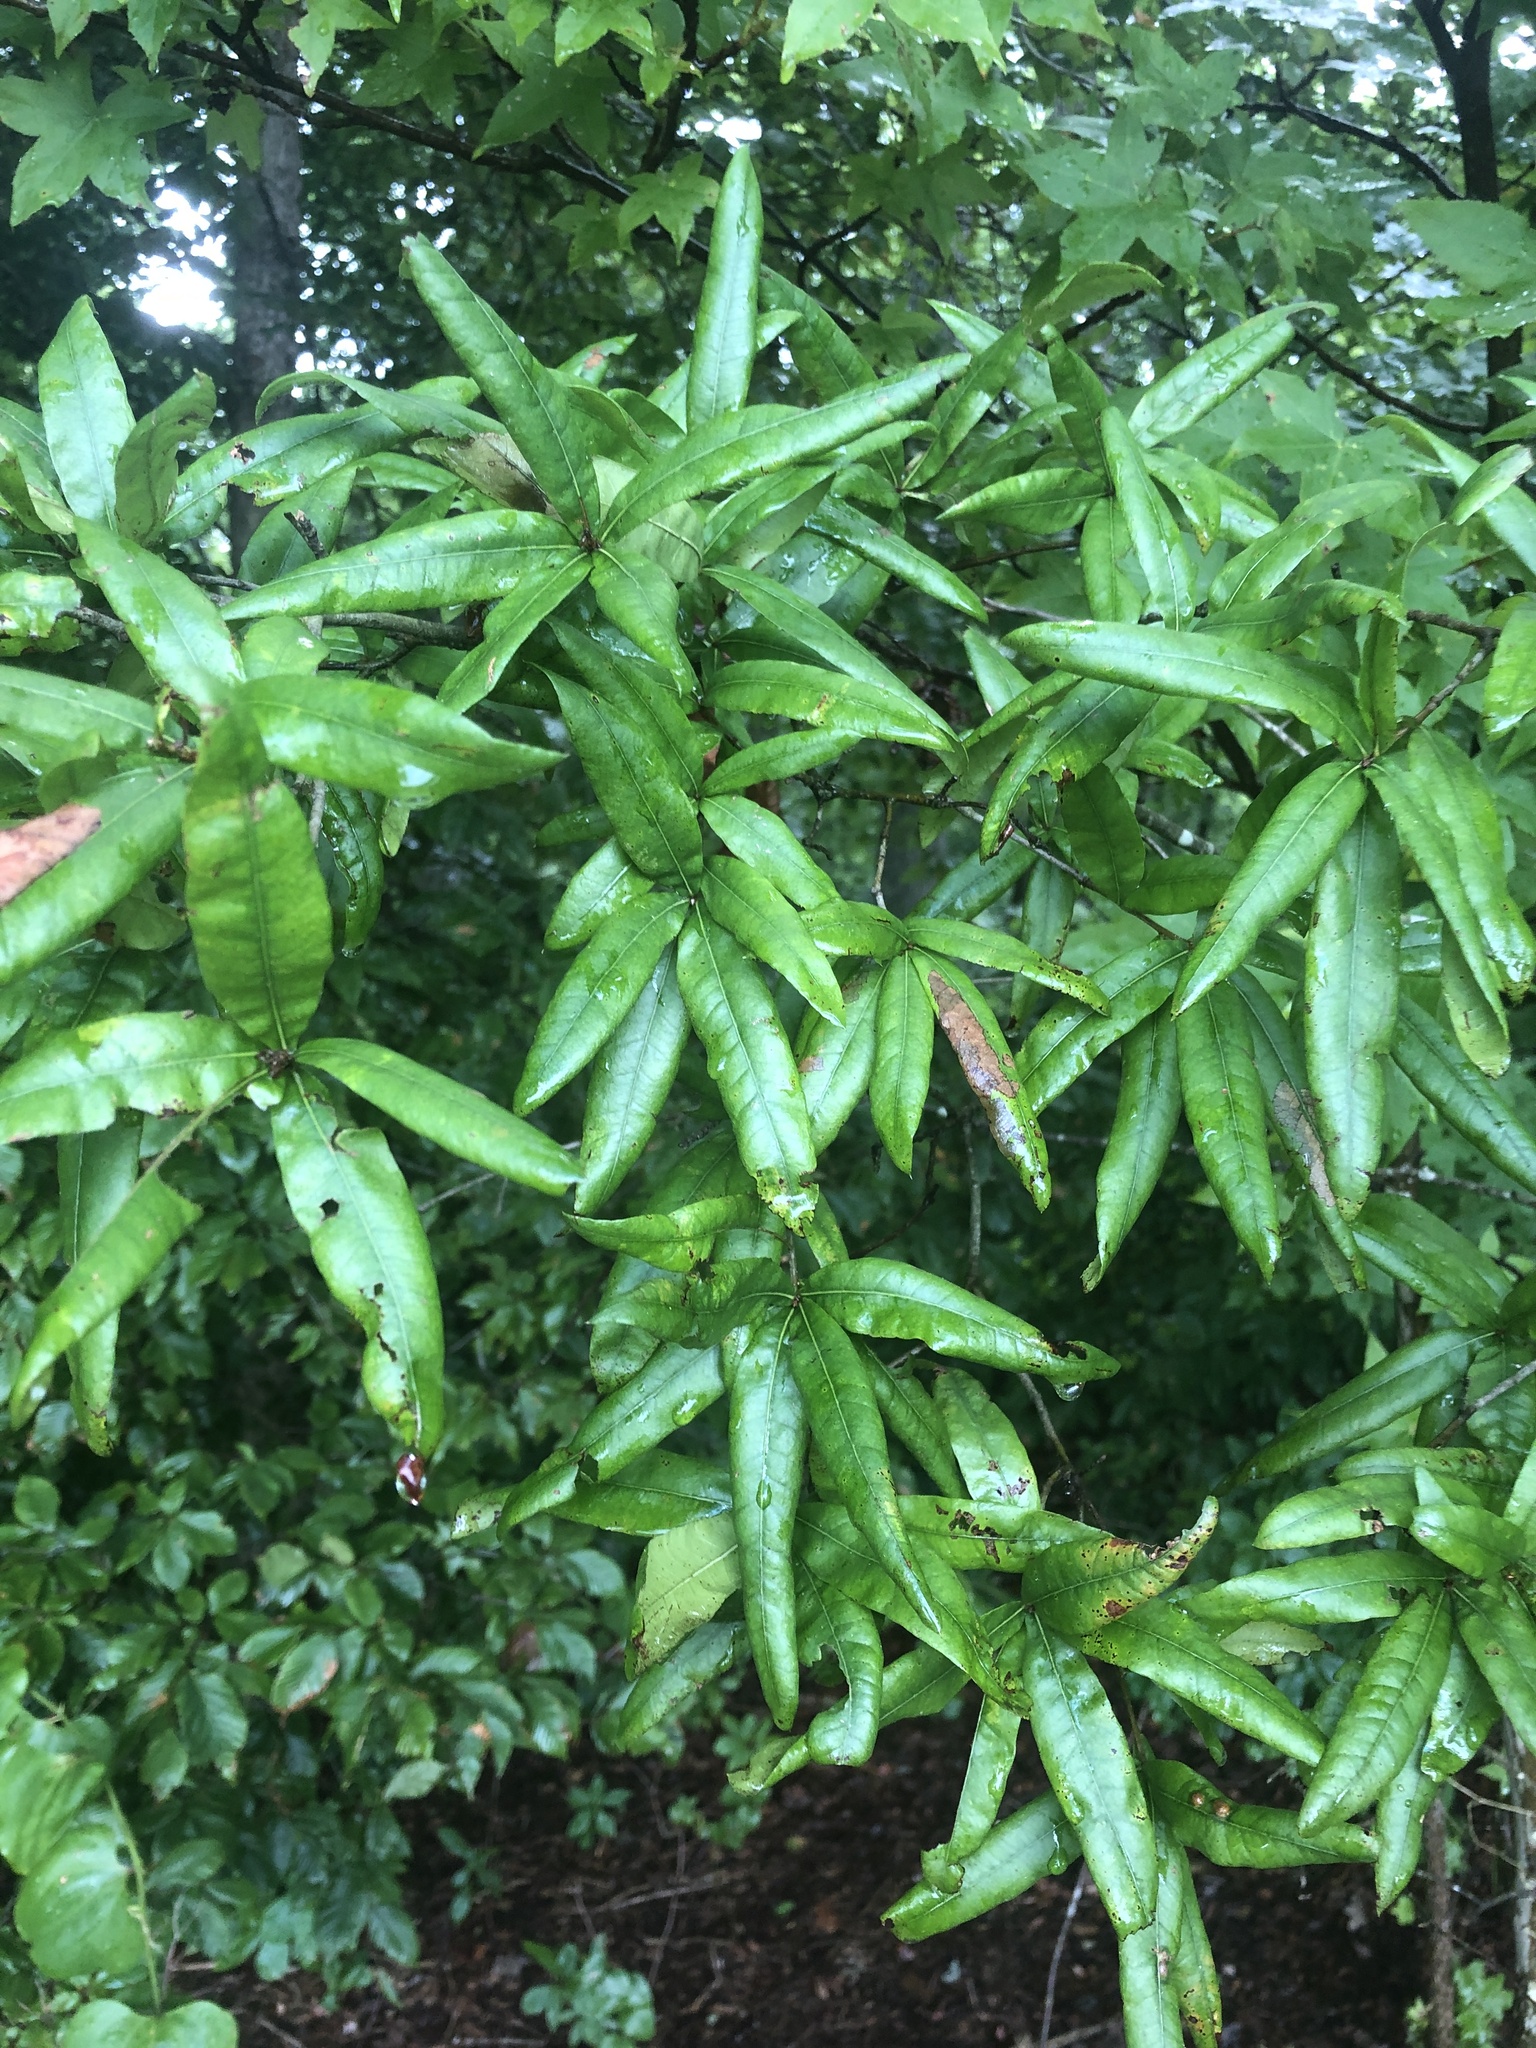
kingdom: Plantae
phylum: Tracheophyta
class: Magnoliopsida
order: Fagales
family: Fagaceae
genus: Quercus
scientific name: Quercus phellos
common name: Willow oak
